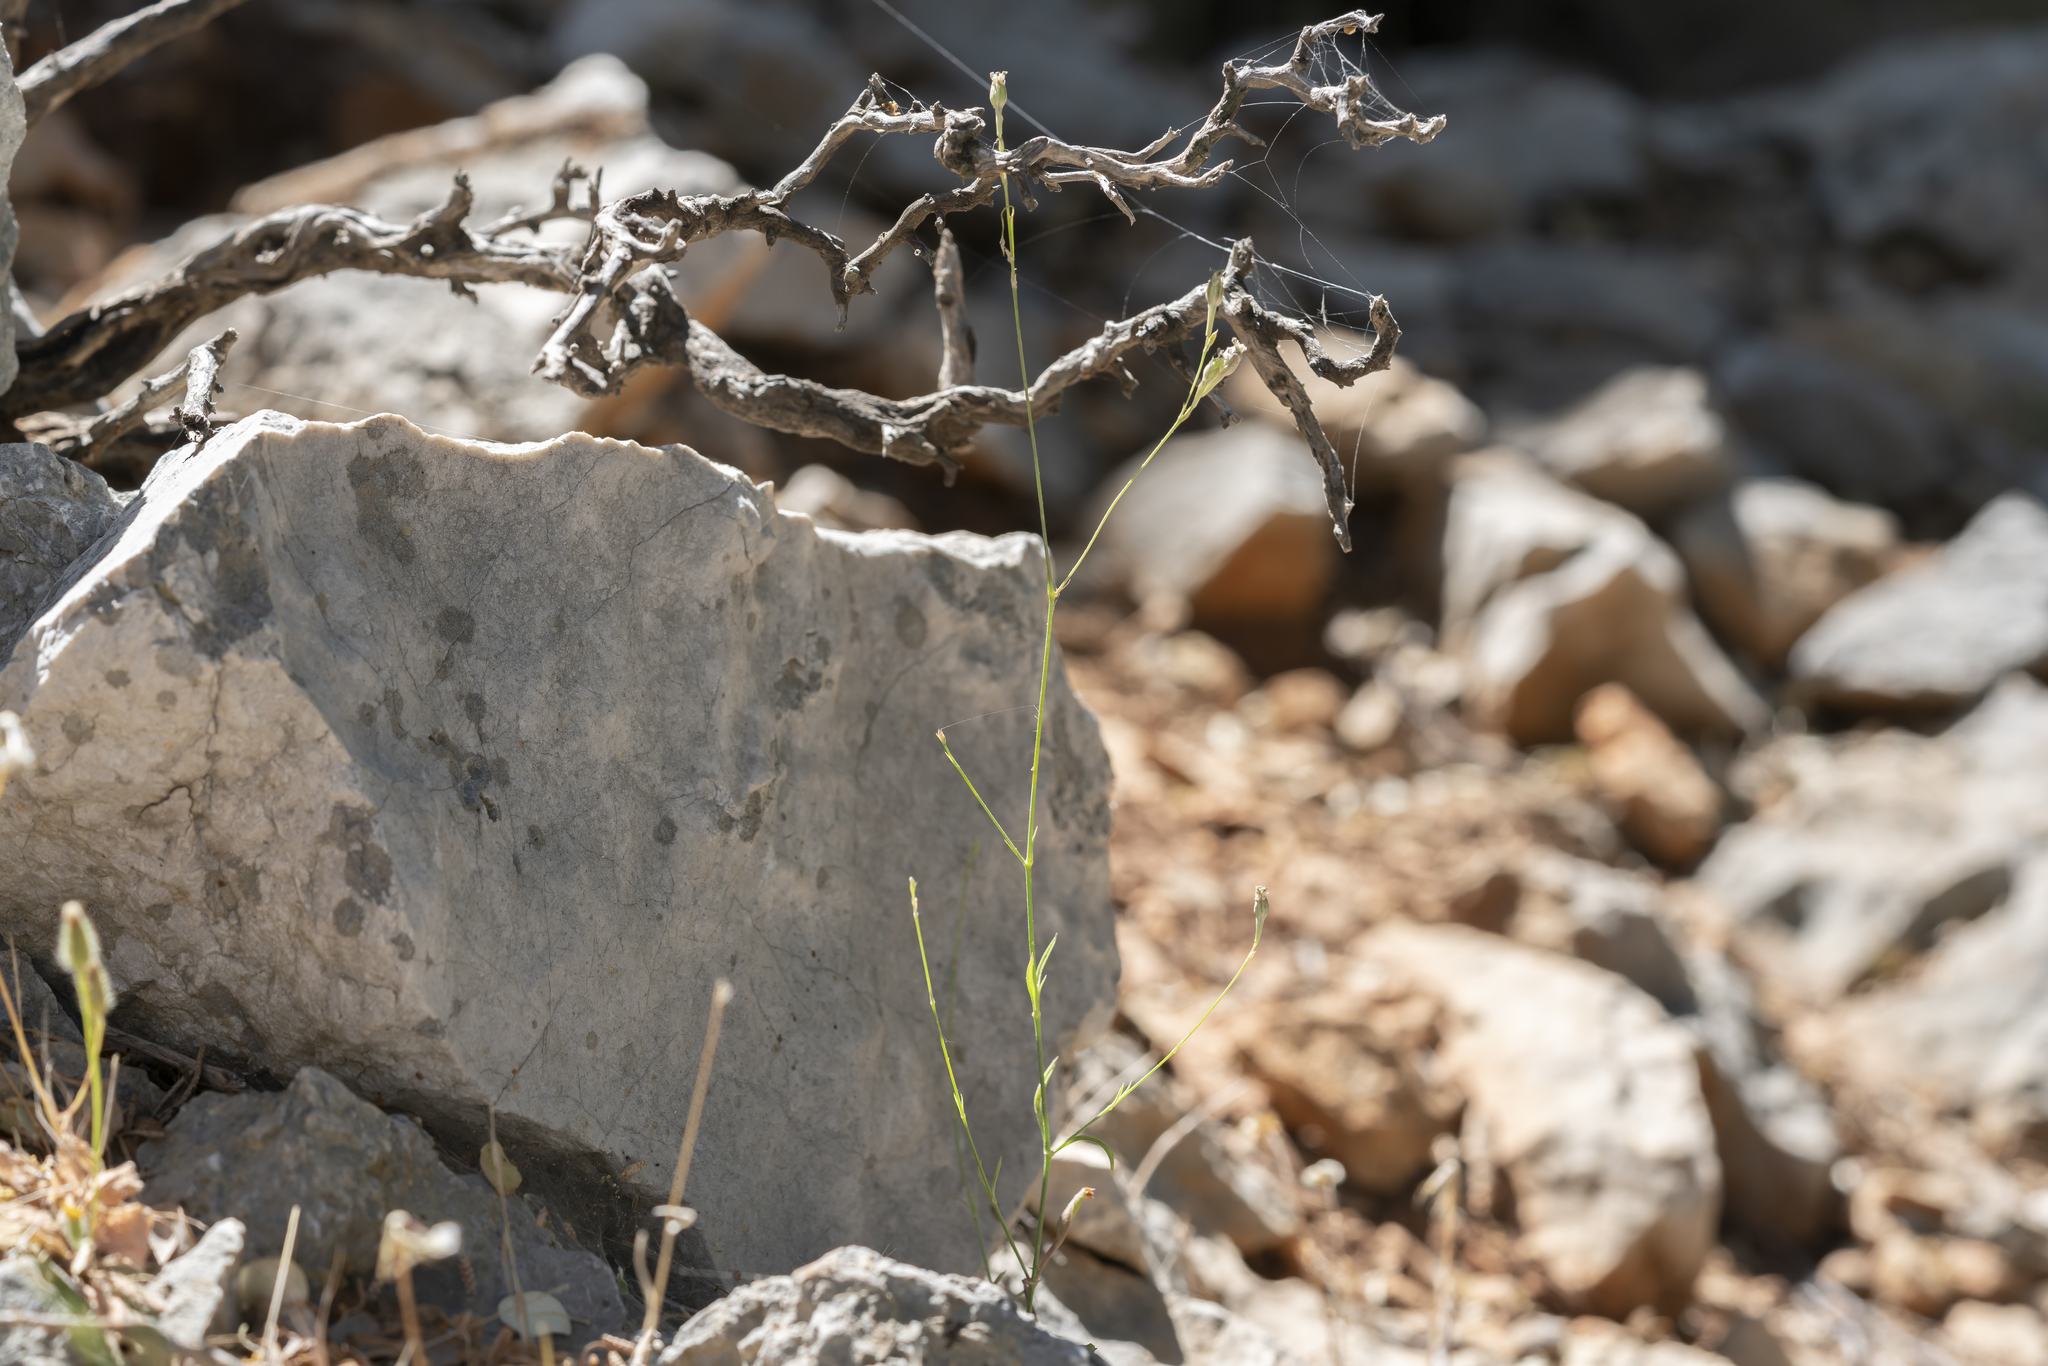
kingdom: Plantae
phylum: Tracheophyta
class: Magnoliopsida
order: Caryophyllales
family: Caryophyllaceae
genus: Silene
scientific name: Silene echinospermoides
